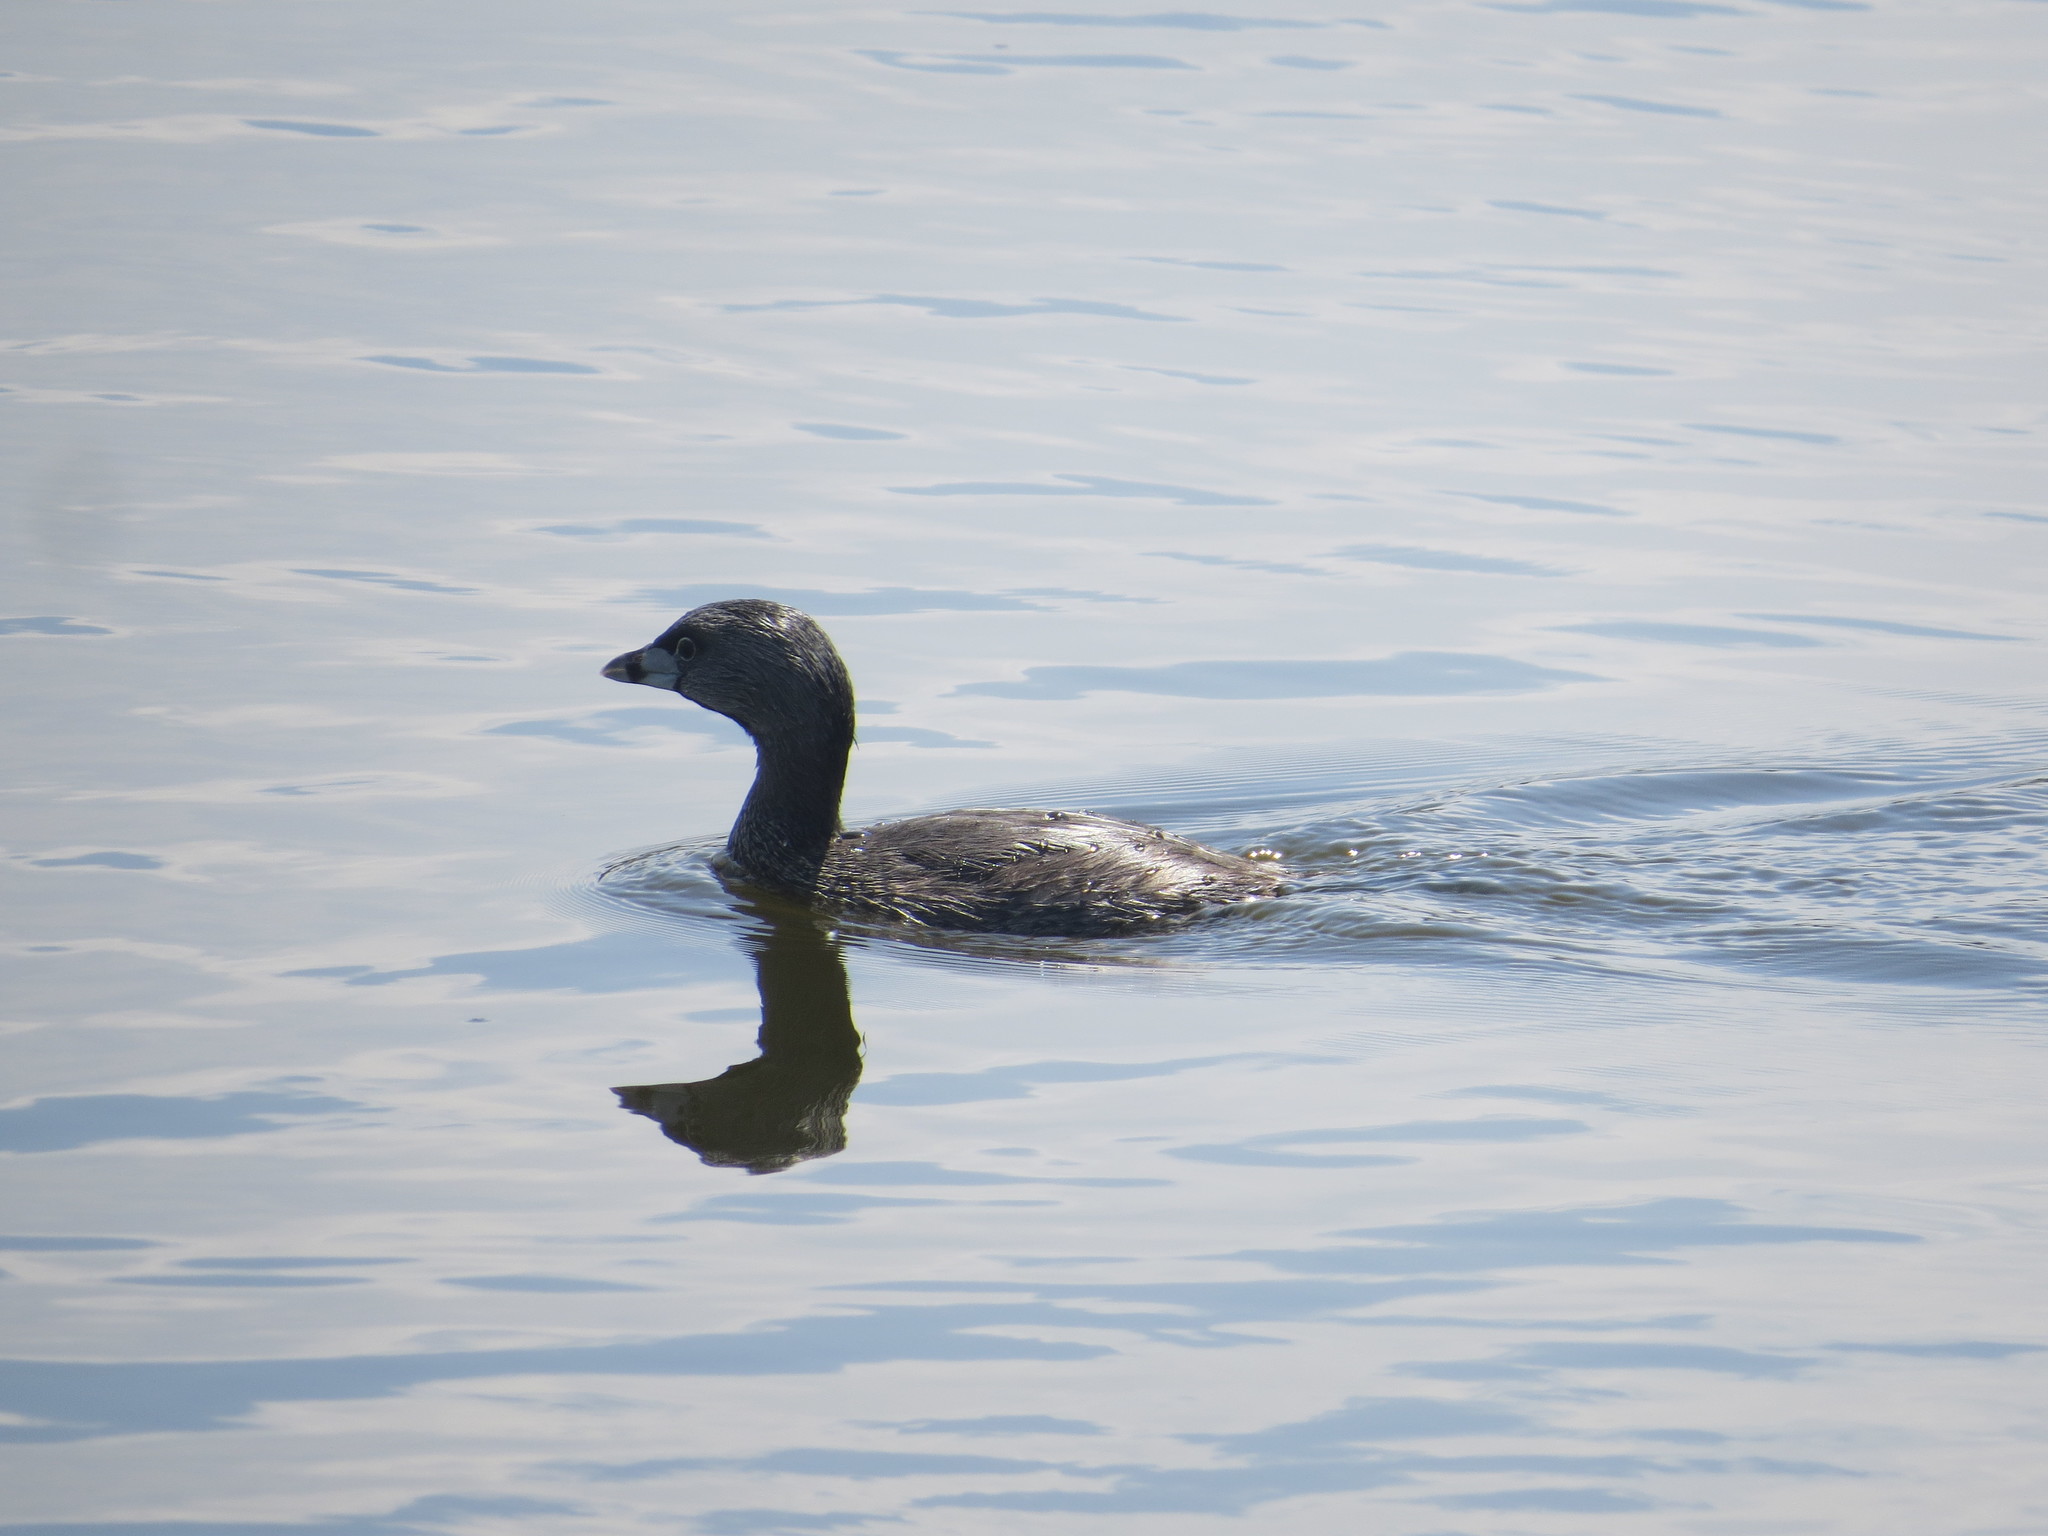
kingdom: Animalia
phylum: Chordata
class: Aves
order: Podicipediformes
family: Podicipedidae
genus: Podilymbus
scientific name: Podilymbus podiceps
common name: Pied-billed grebe
